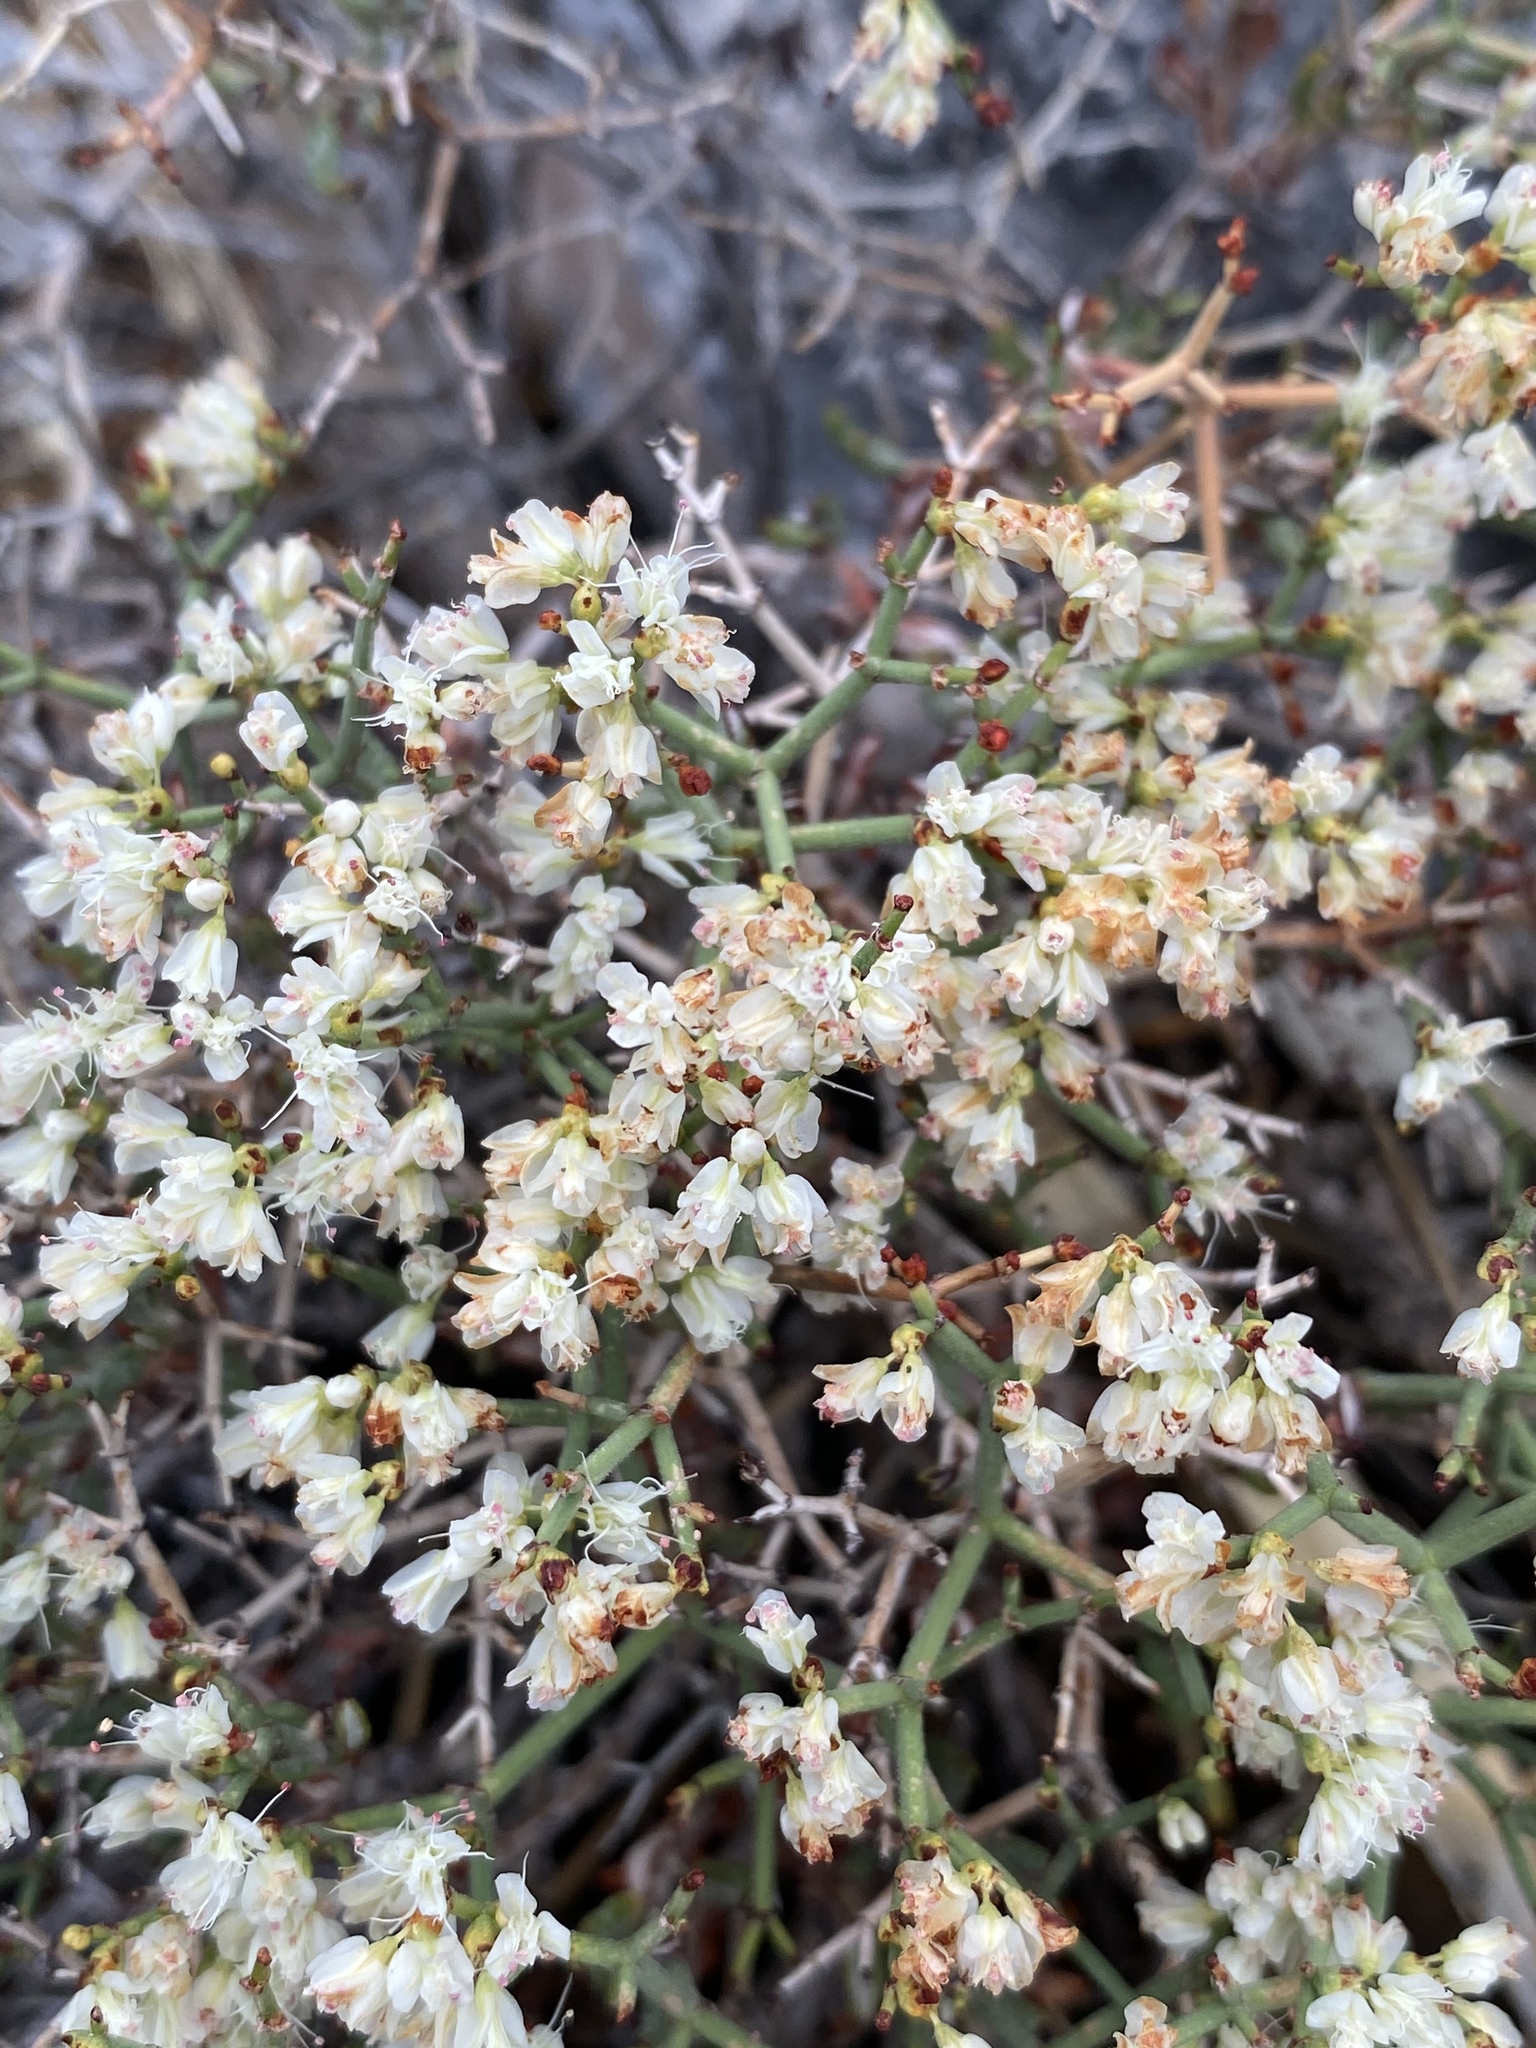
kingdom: Plantae
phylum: Tracheophyta
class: Magnoliopsida
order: Caryophyllales
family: Polygonaceae
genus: Eriogonum
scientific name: Eriogonum heermannii
